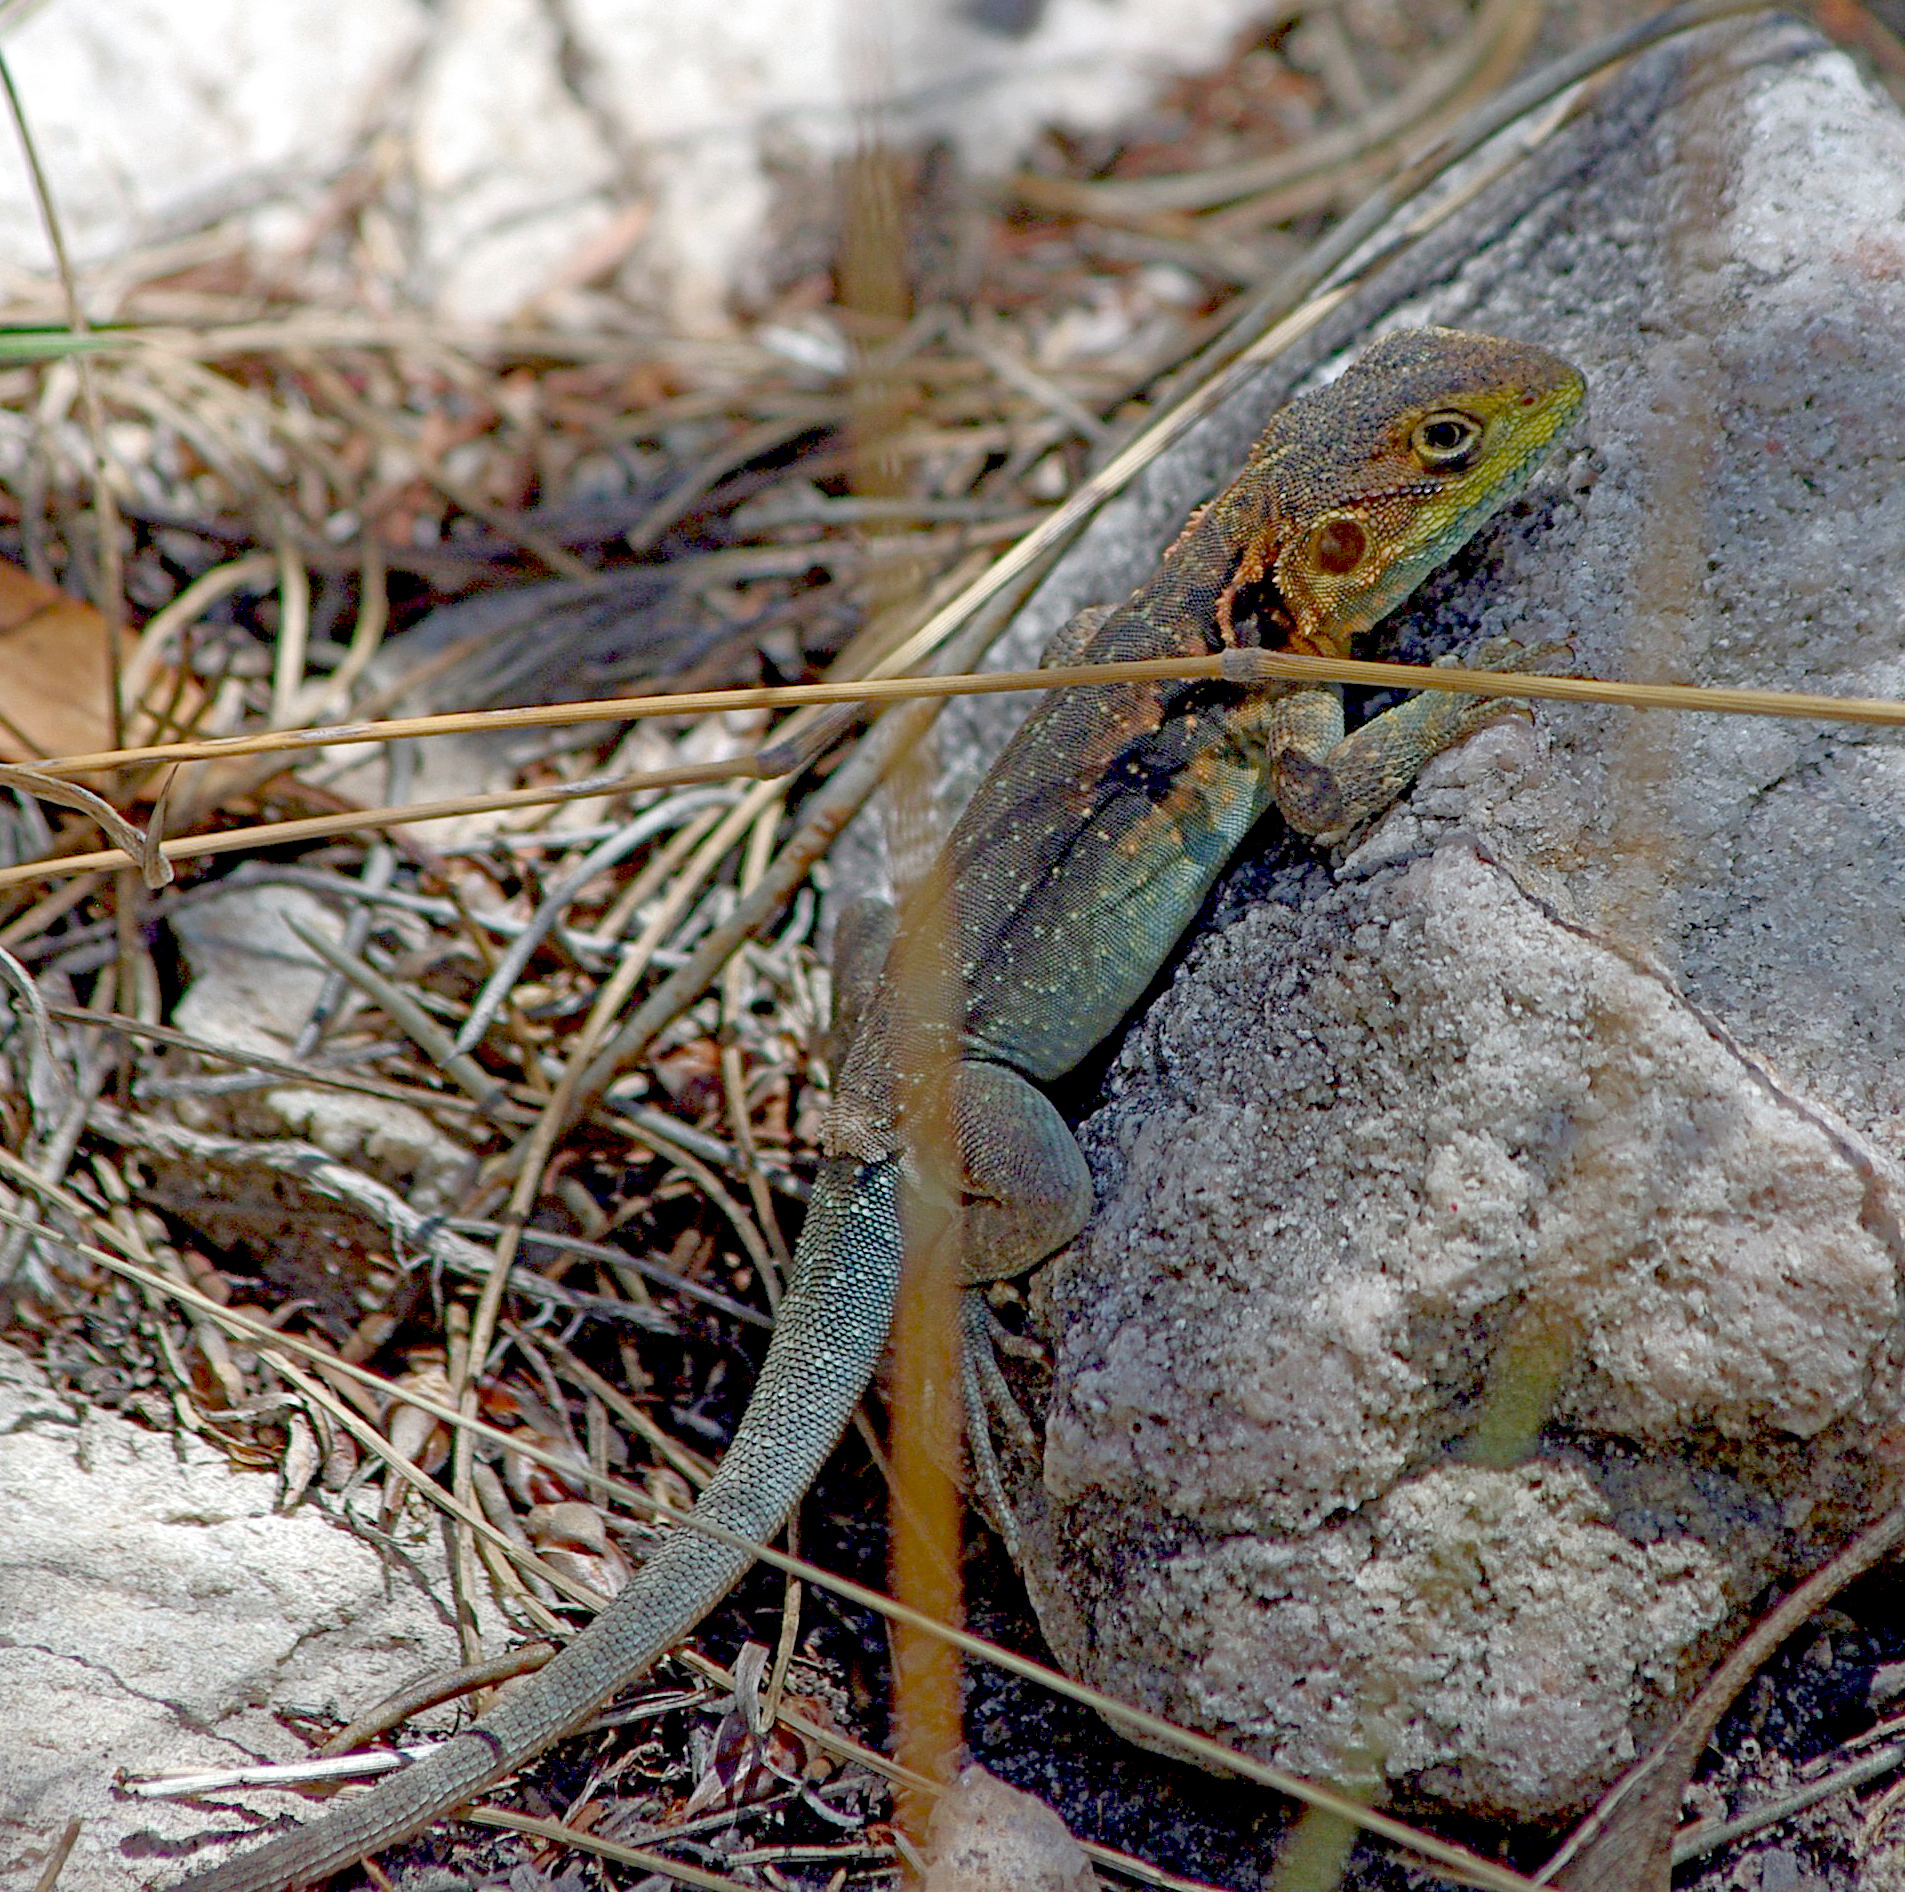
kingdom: Animalia
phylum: Chordata
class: Squamata
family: Agamidae
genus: Ctenophorus
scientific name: Ctenophorus decresii
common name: Tawny dragon
